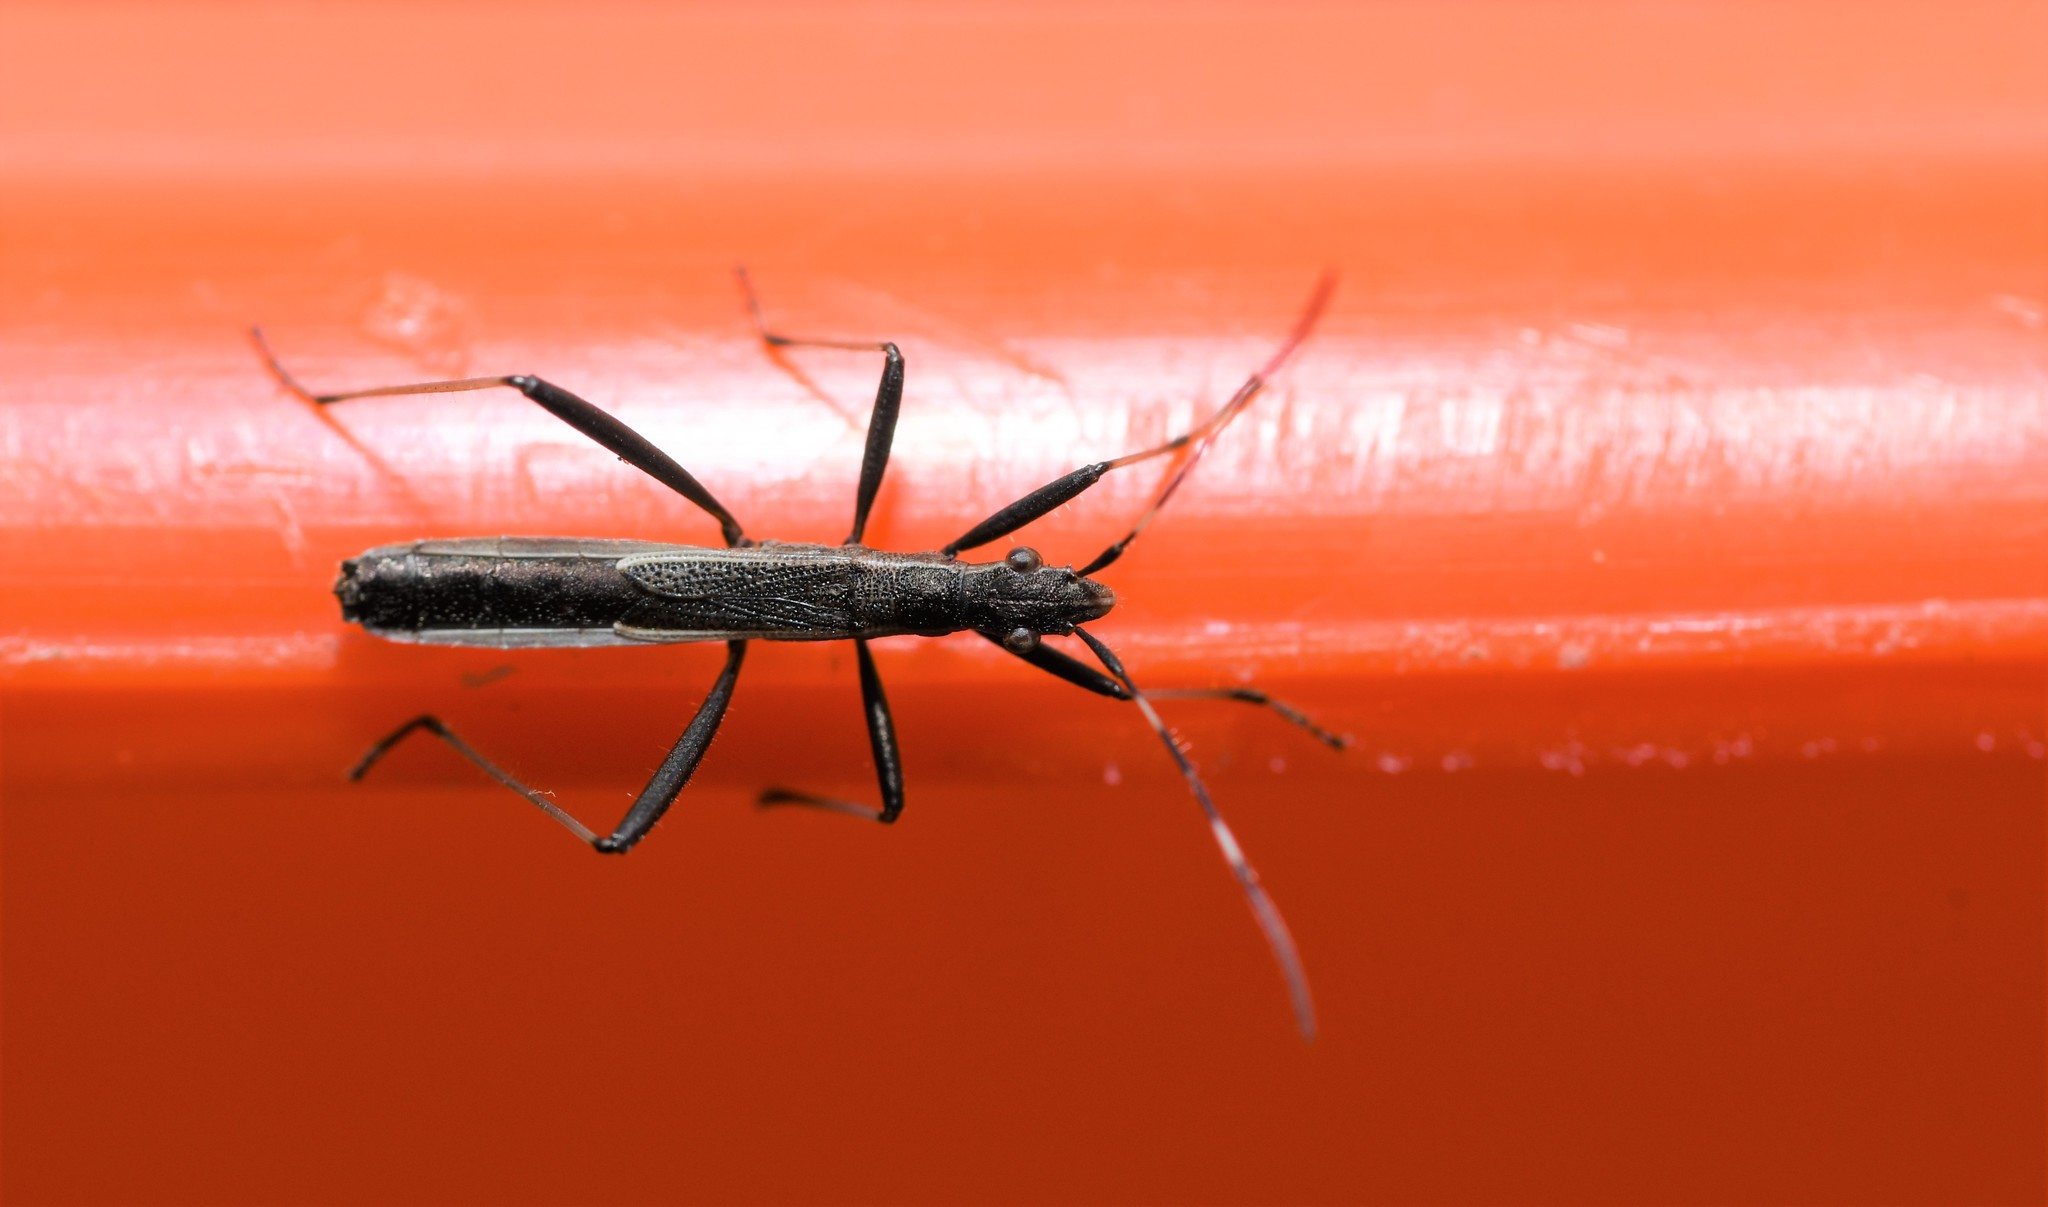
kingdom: Animalia
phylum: Arthropoda
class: Insecta
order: Hemiptera
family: Alydidae
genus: Micrelytra
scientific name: Micrelytra fossularum
